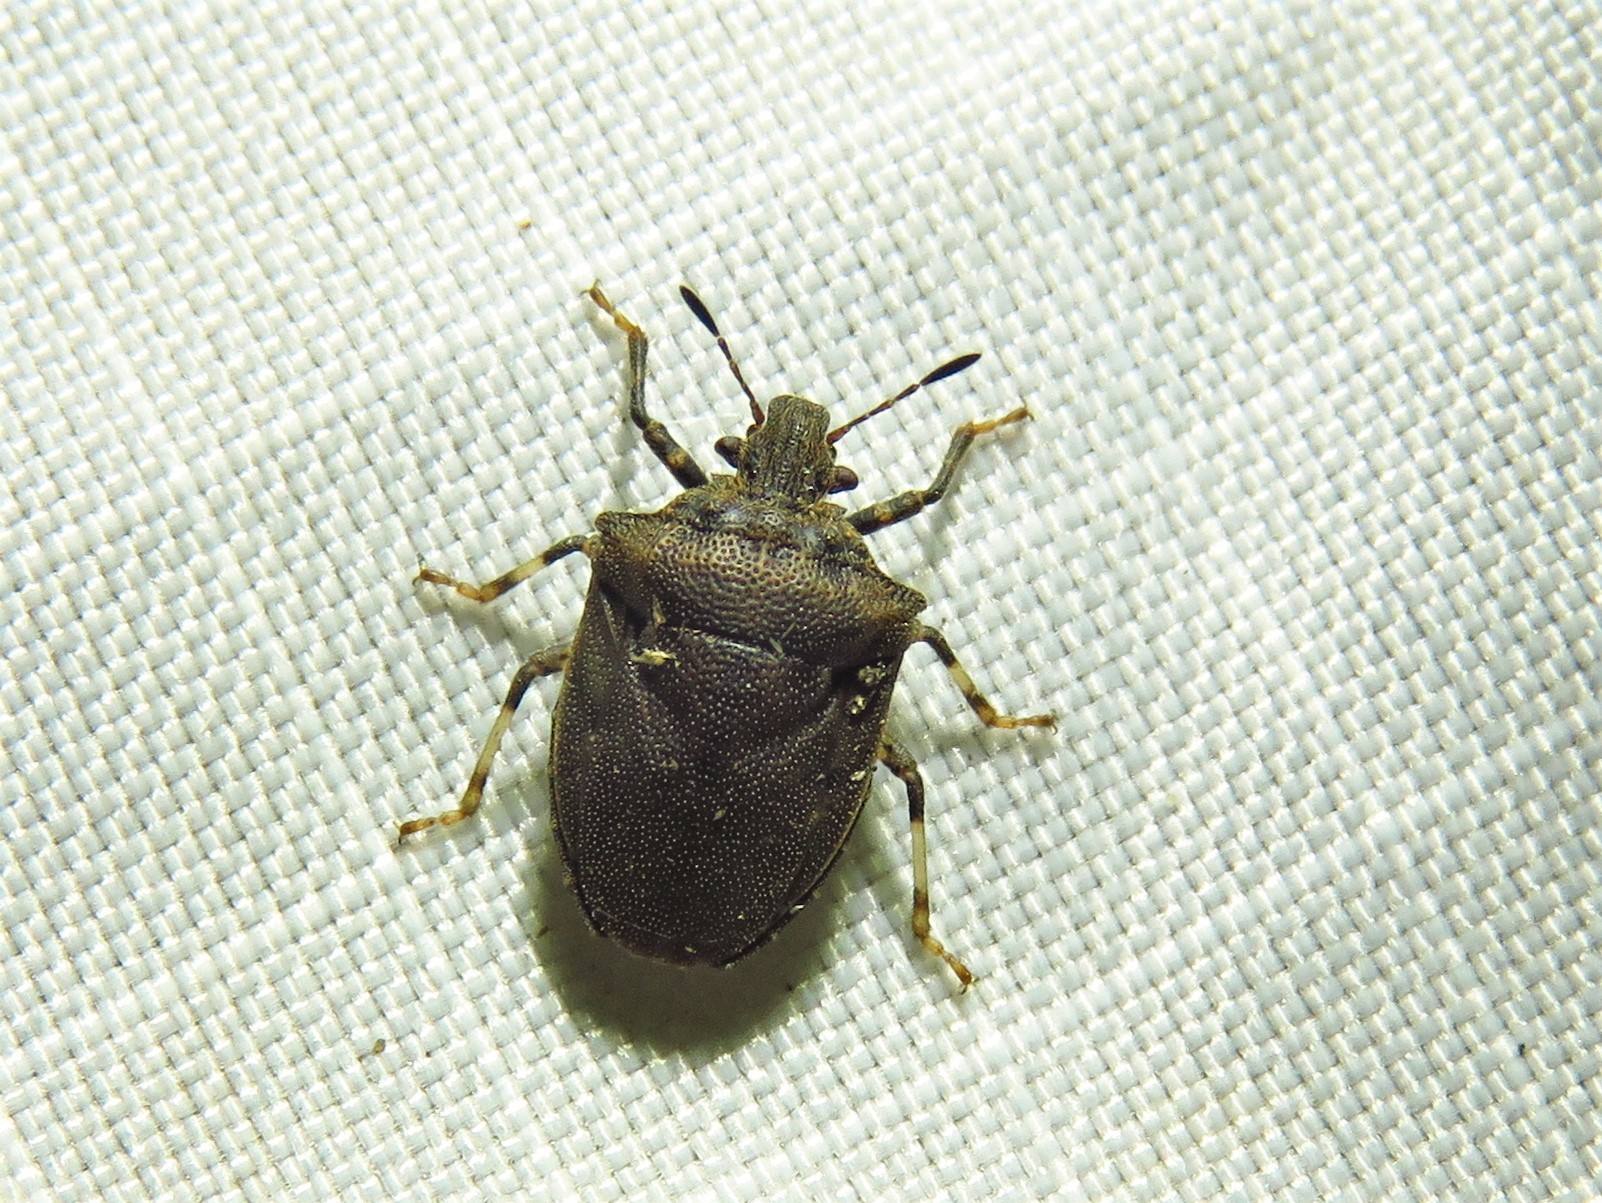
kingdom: Animalia
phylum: Arthropoda
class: Insecta
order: Hemiptera
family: Pentatomidae
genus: Amaurochrous
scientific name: Amaurochrous cinctipes
